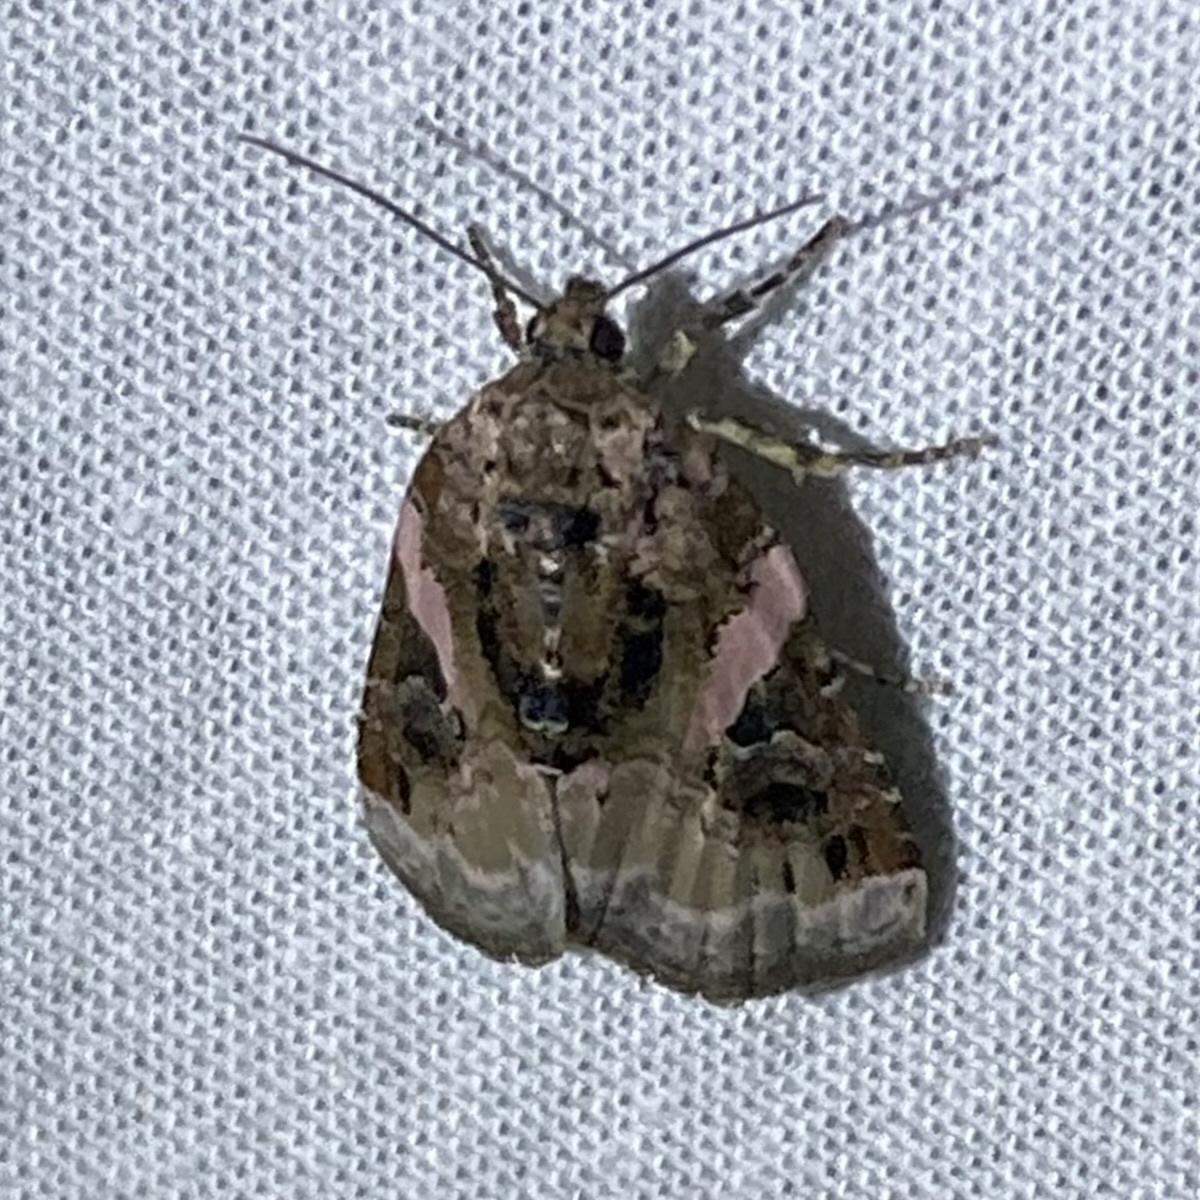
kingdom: Animalia
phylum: Arthropoda
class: Insecta
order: Lepidoptera
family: Noctuidae
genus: Pseudeustrotia
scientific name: Pseudeustrotia carneola
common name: Pink-barred lithacodia moth
